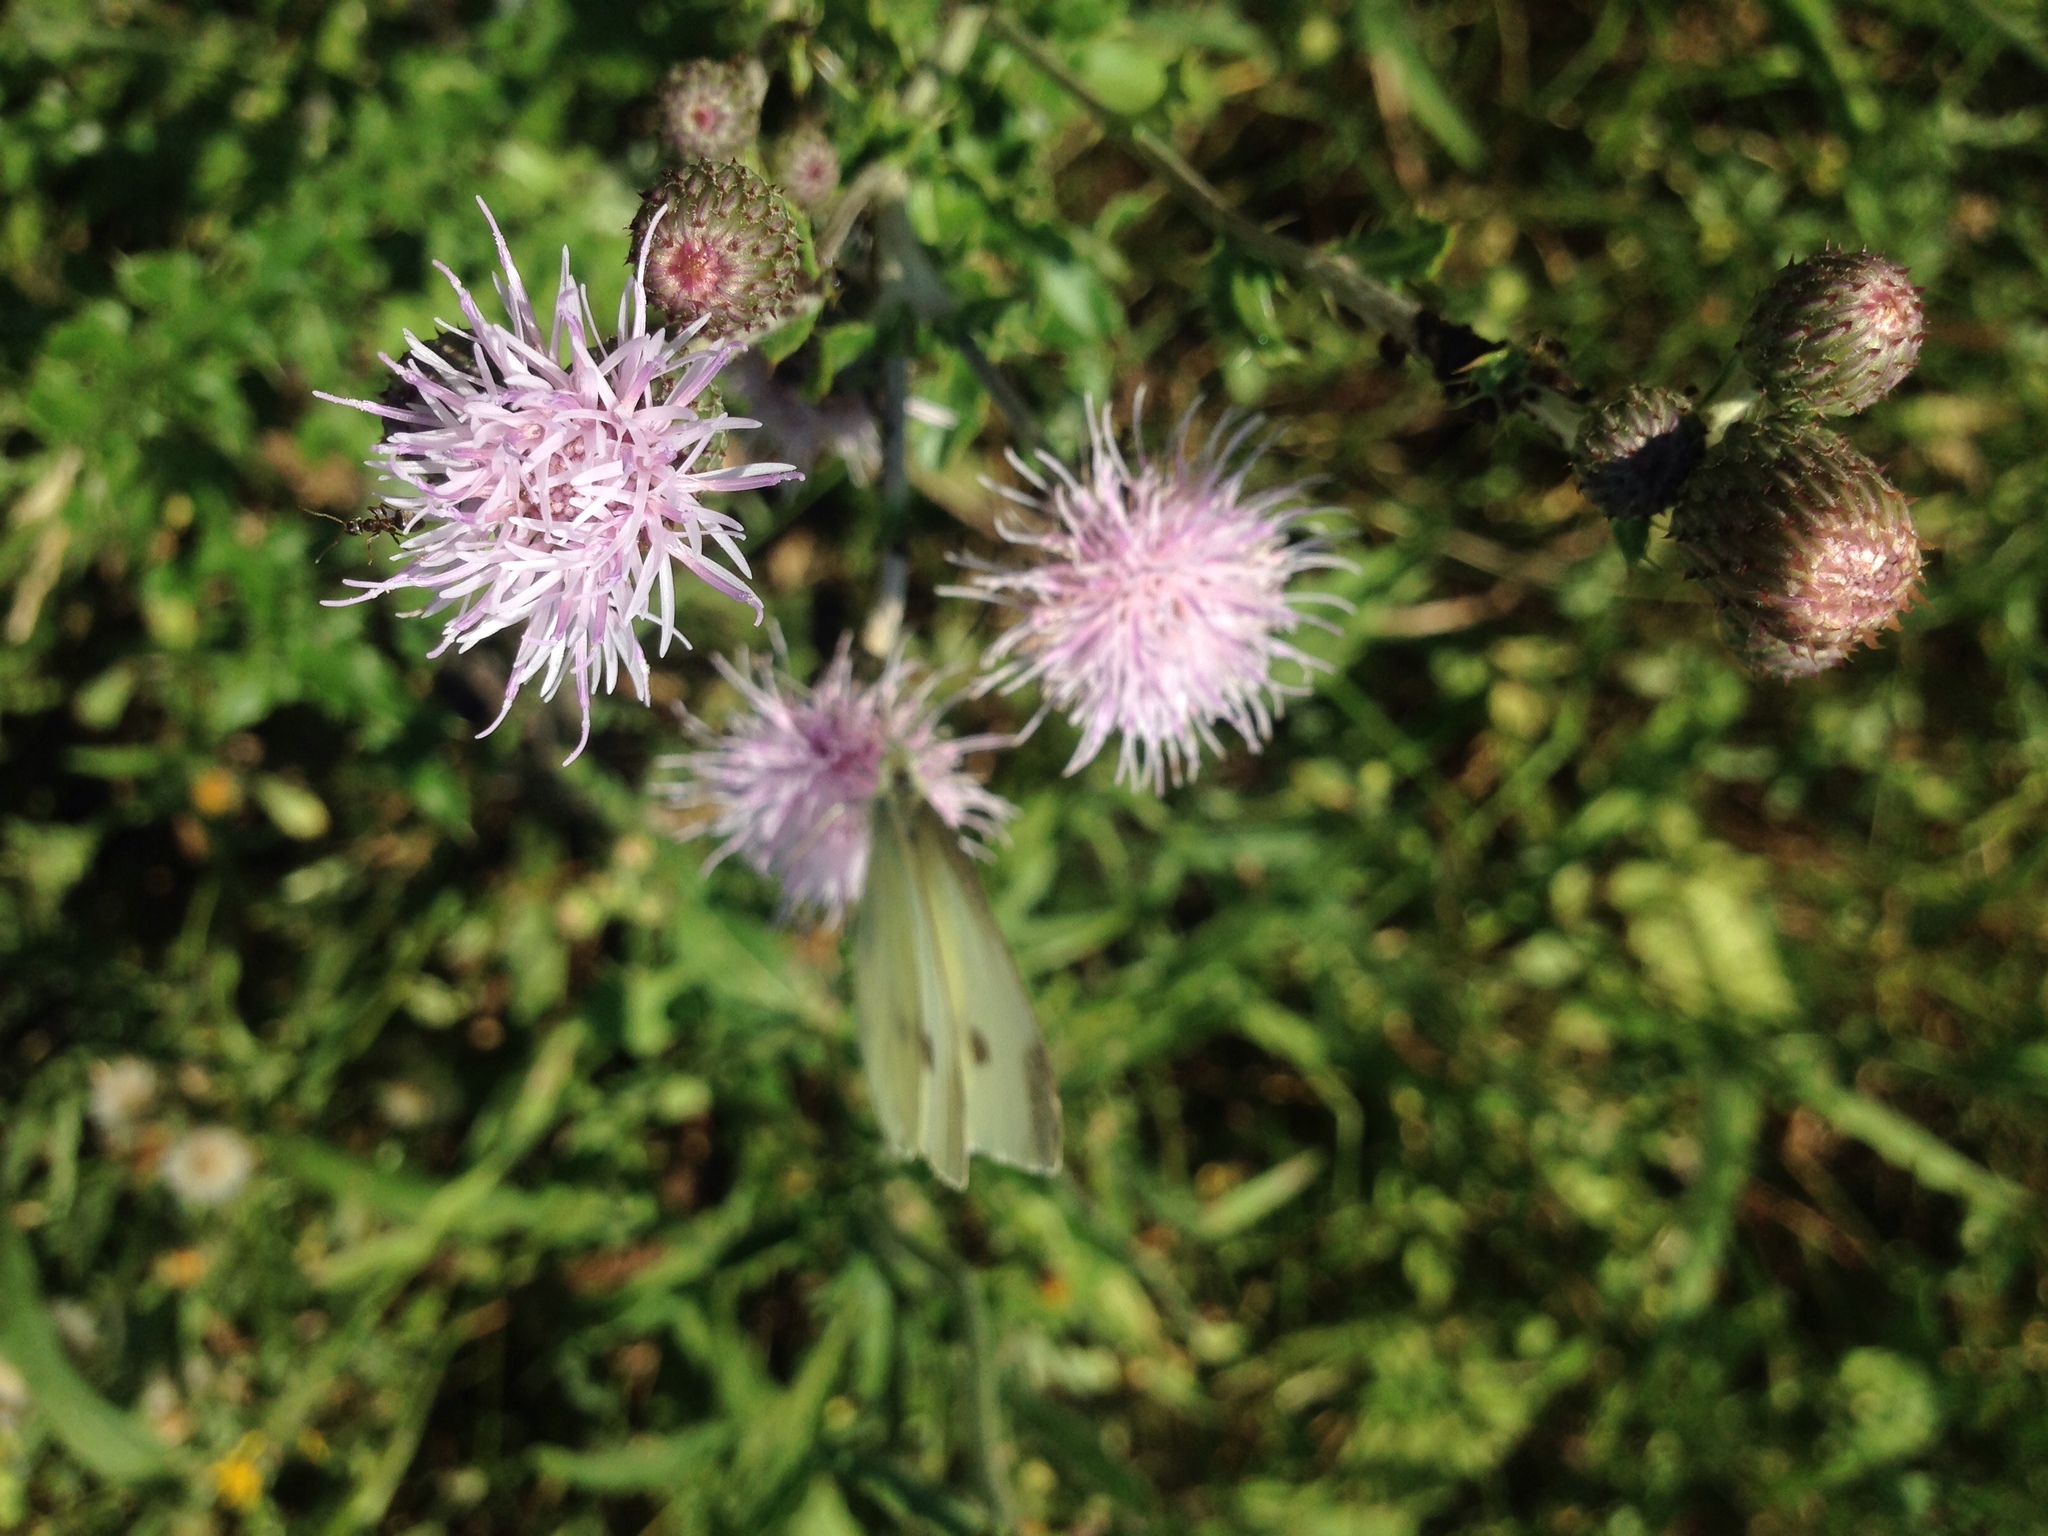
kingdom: Plantae
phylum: Tracheophyta
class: Magnoliopsida
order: Asterales
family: Asteraceae
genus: Cirsium
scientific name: Cirsium arvense
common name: Creeping thistle
